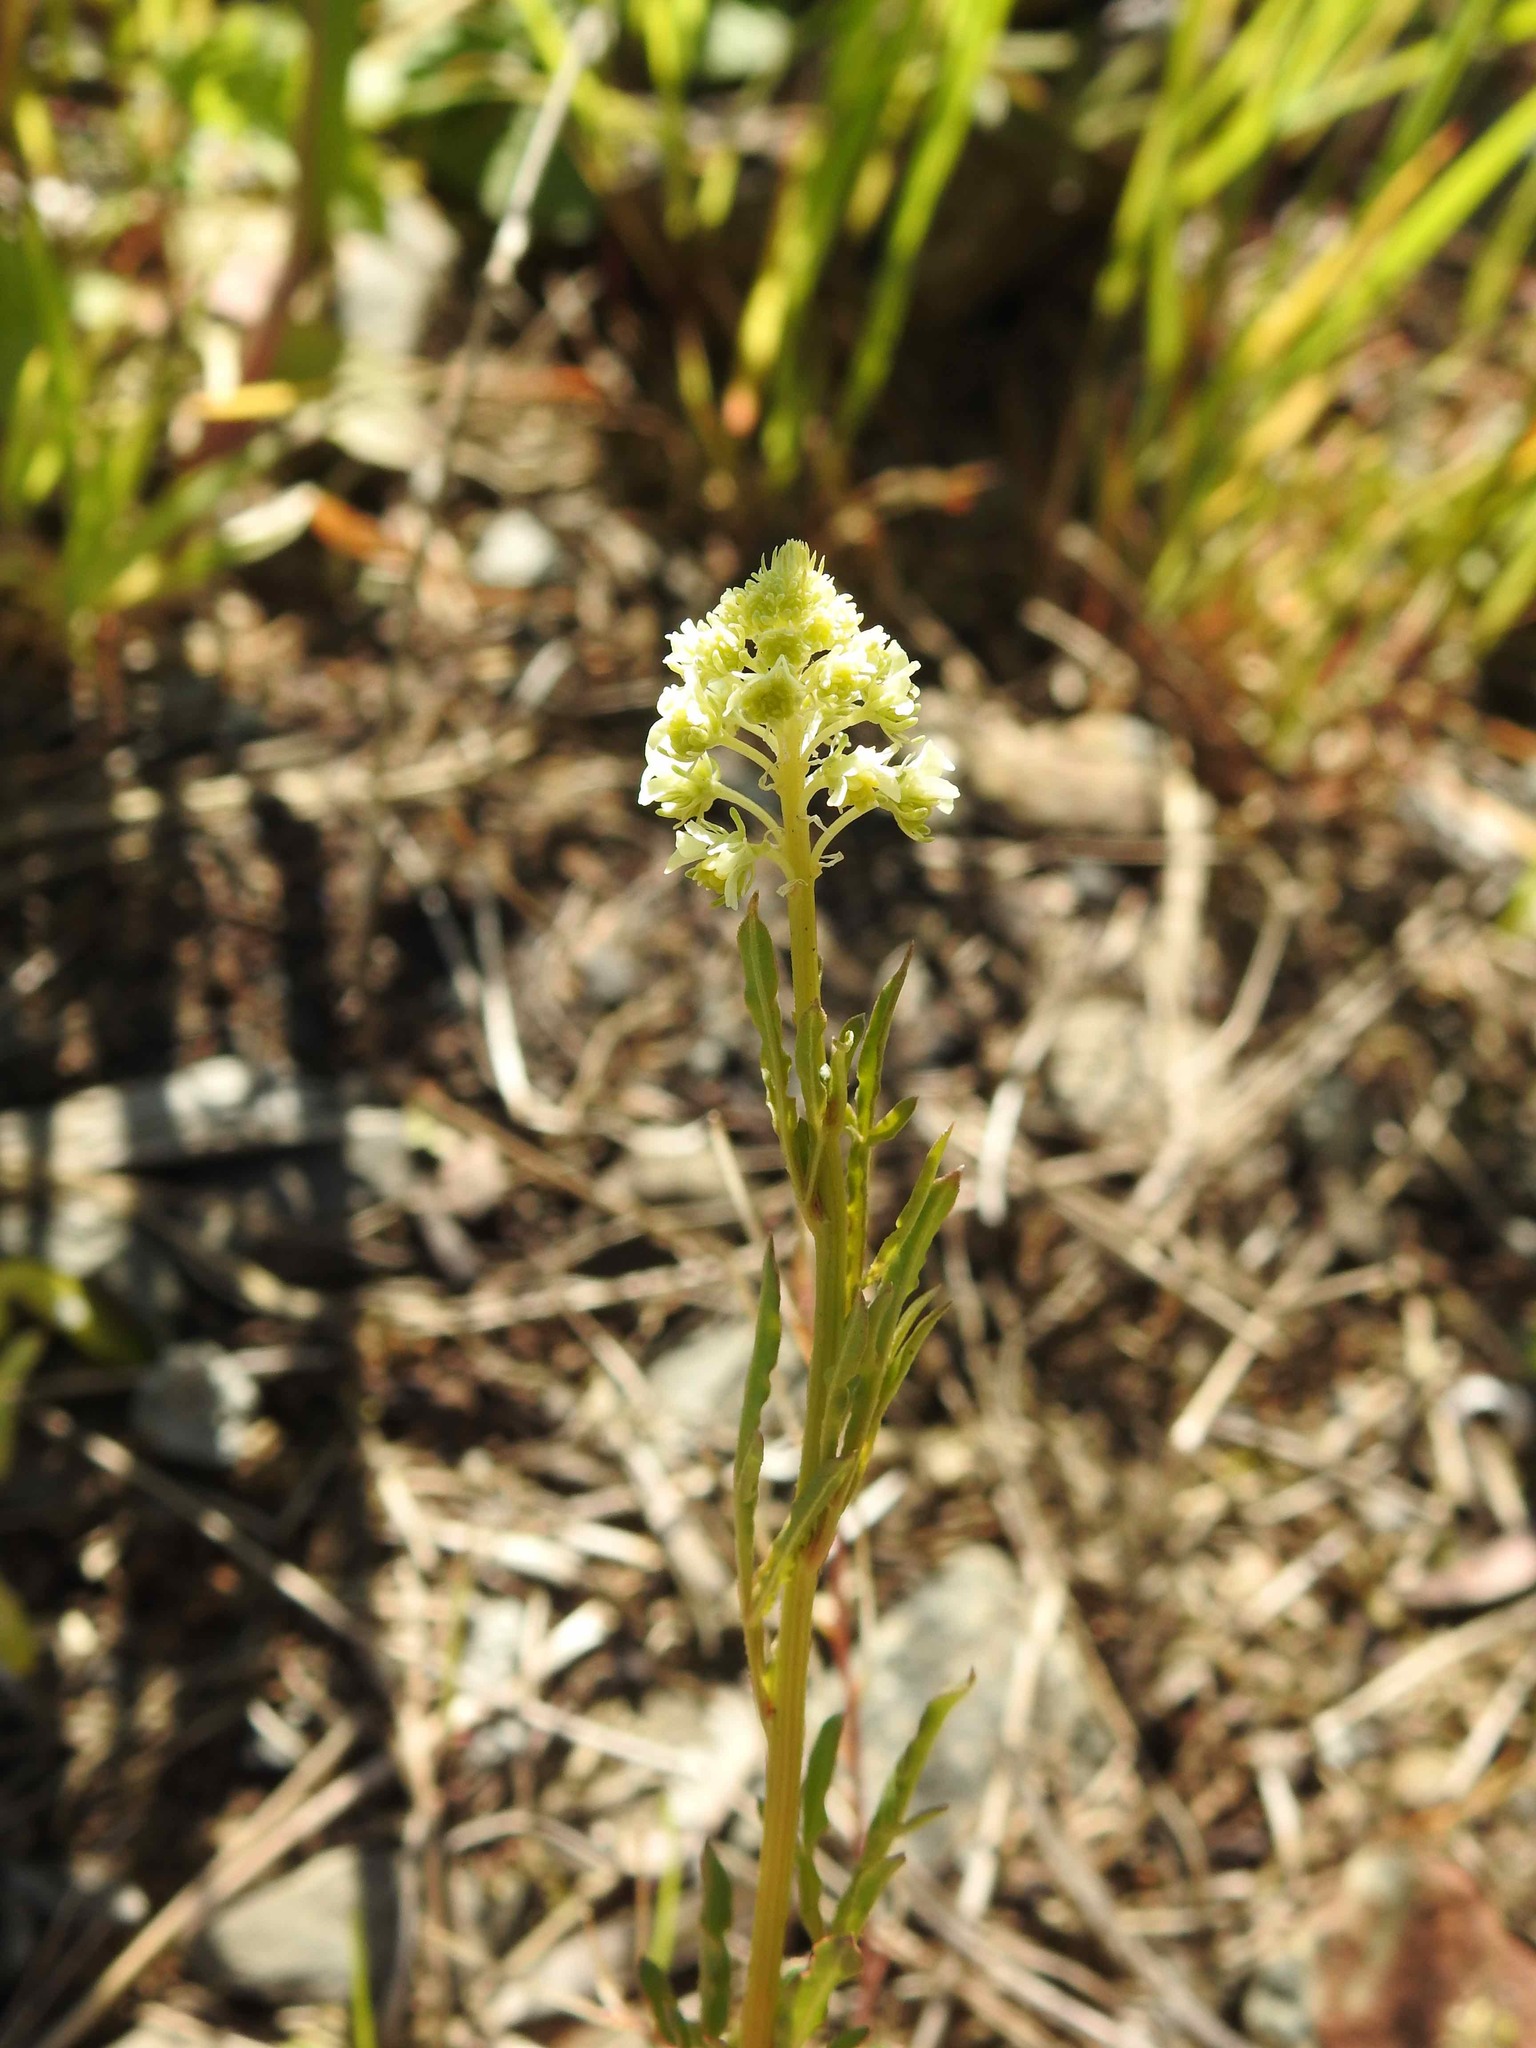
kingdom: Plantae
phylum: Tracheophyta
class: Magnoliopsida
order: Brassicales
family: Resedaceae
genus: Reseda
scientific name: Reseda lutea
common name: Wild mignonette
